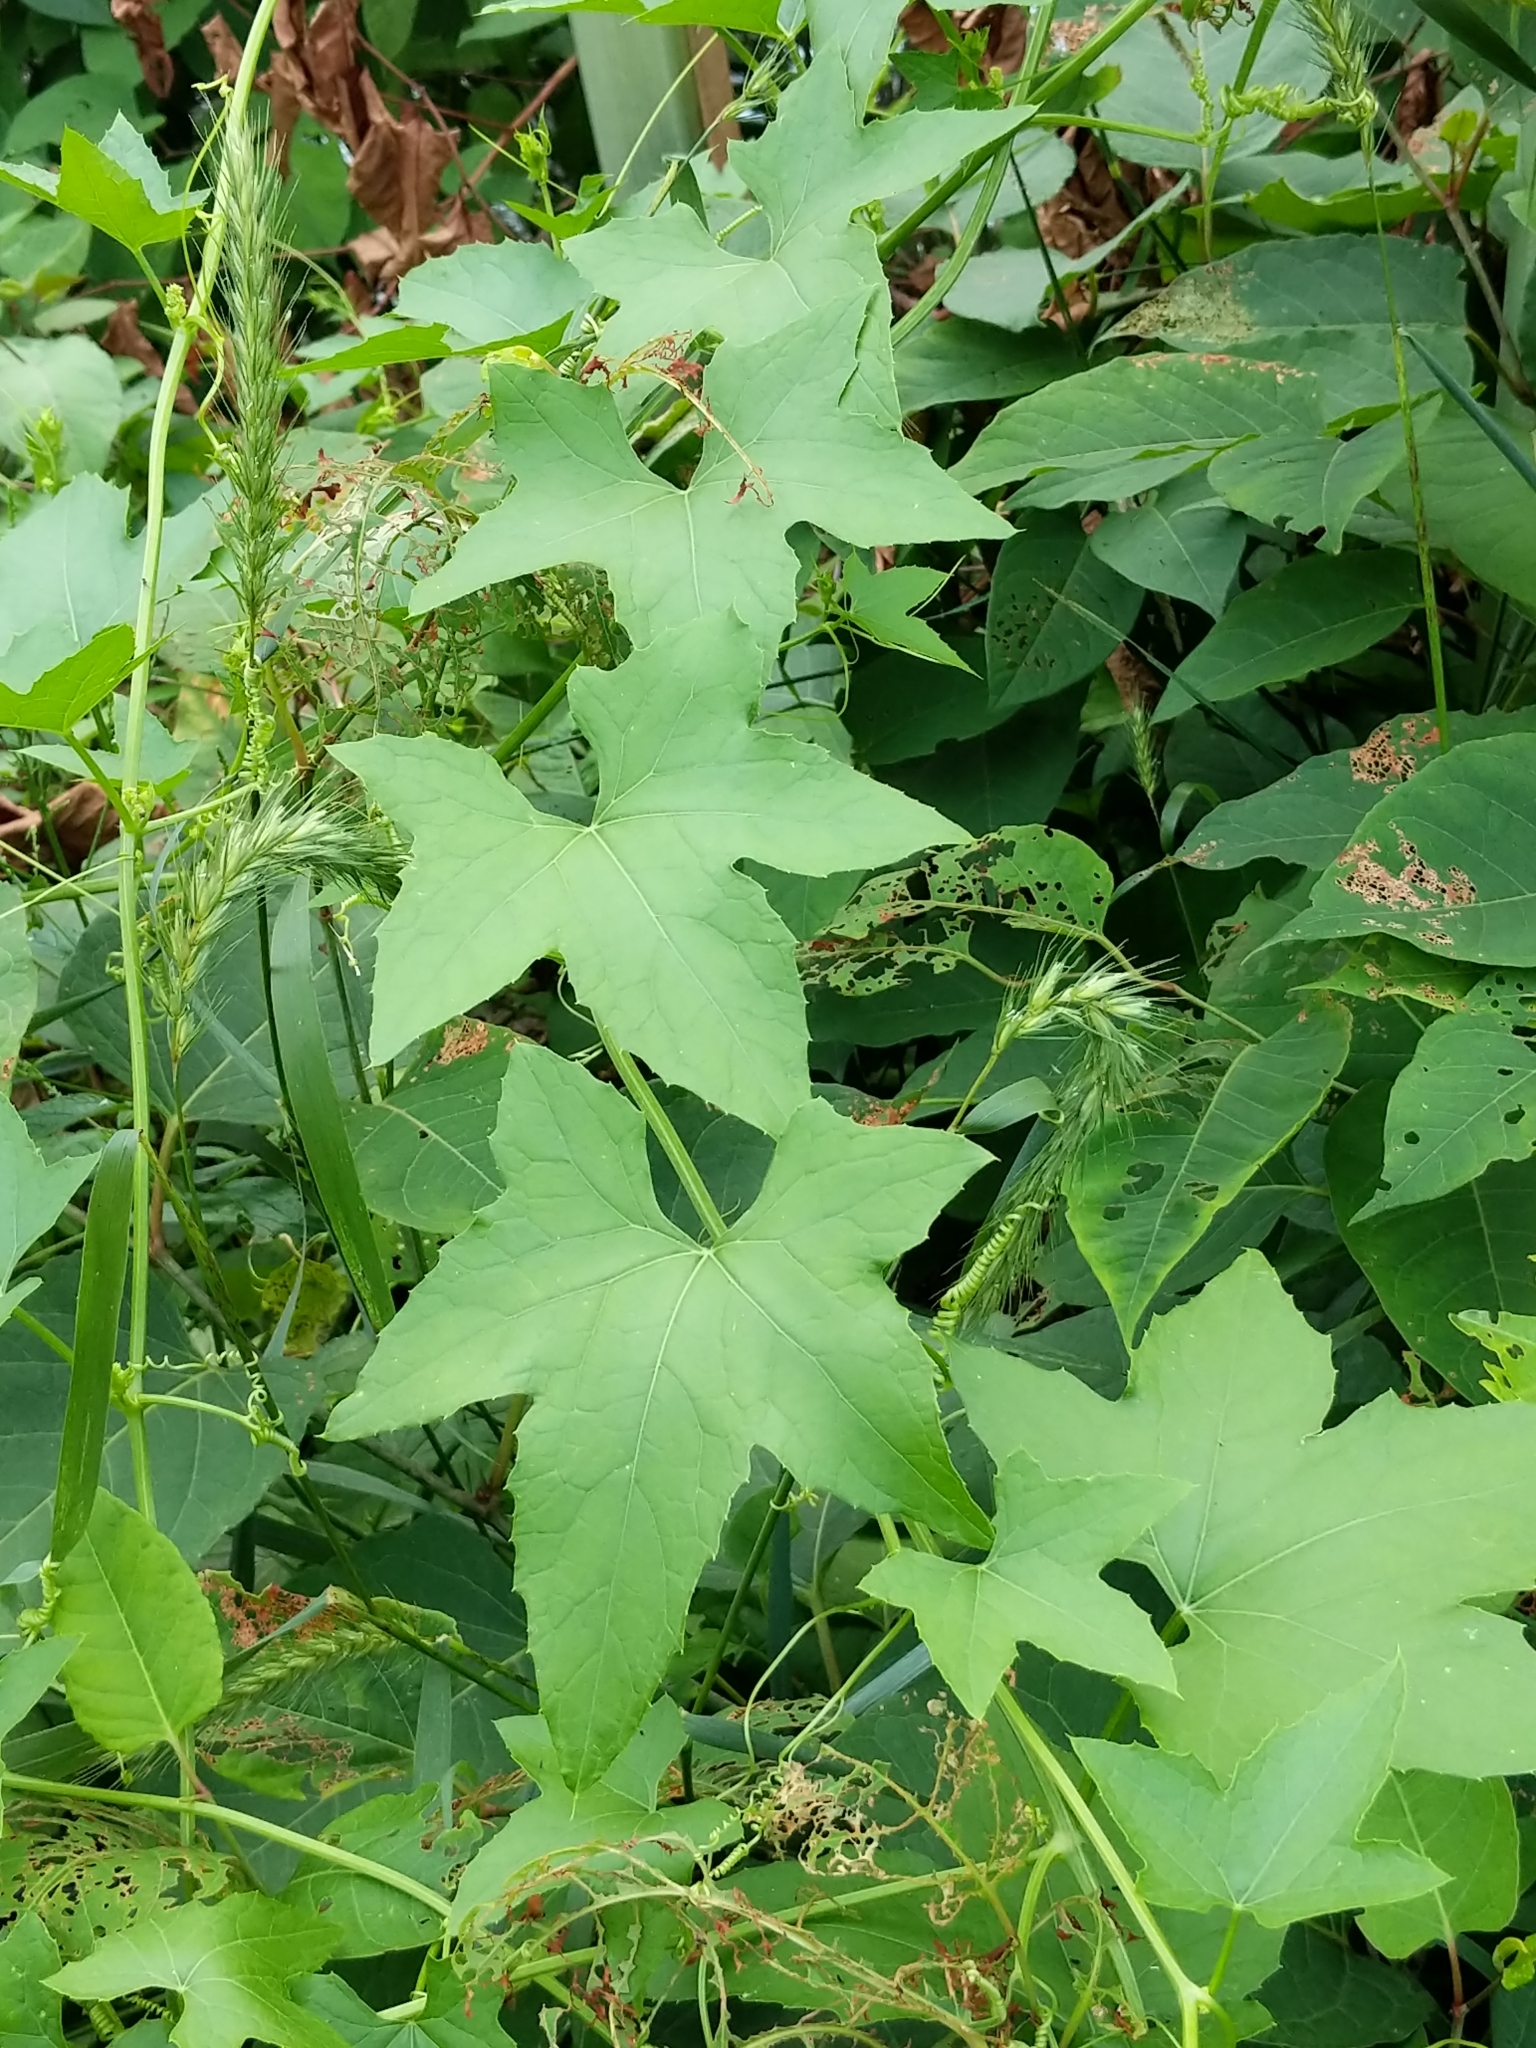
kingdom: Plantae
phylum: Tracheophyta
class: Magnoliopsida
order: Cucurbitales
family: Cucurbitaceae
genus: Echinocystis
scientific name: Echinocystis lobata
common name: Wild cucumber
